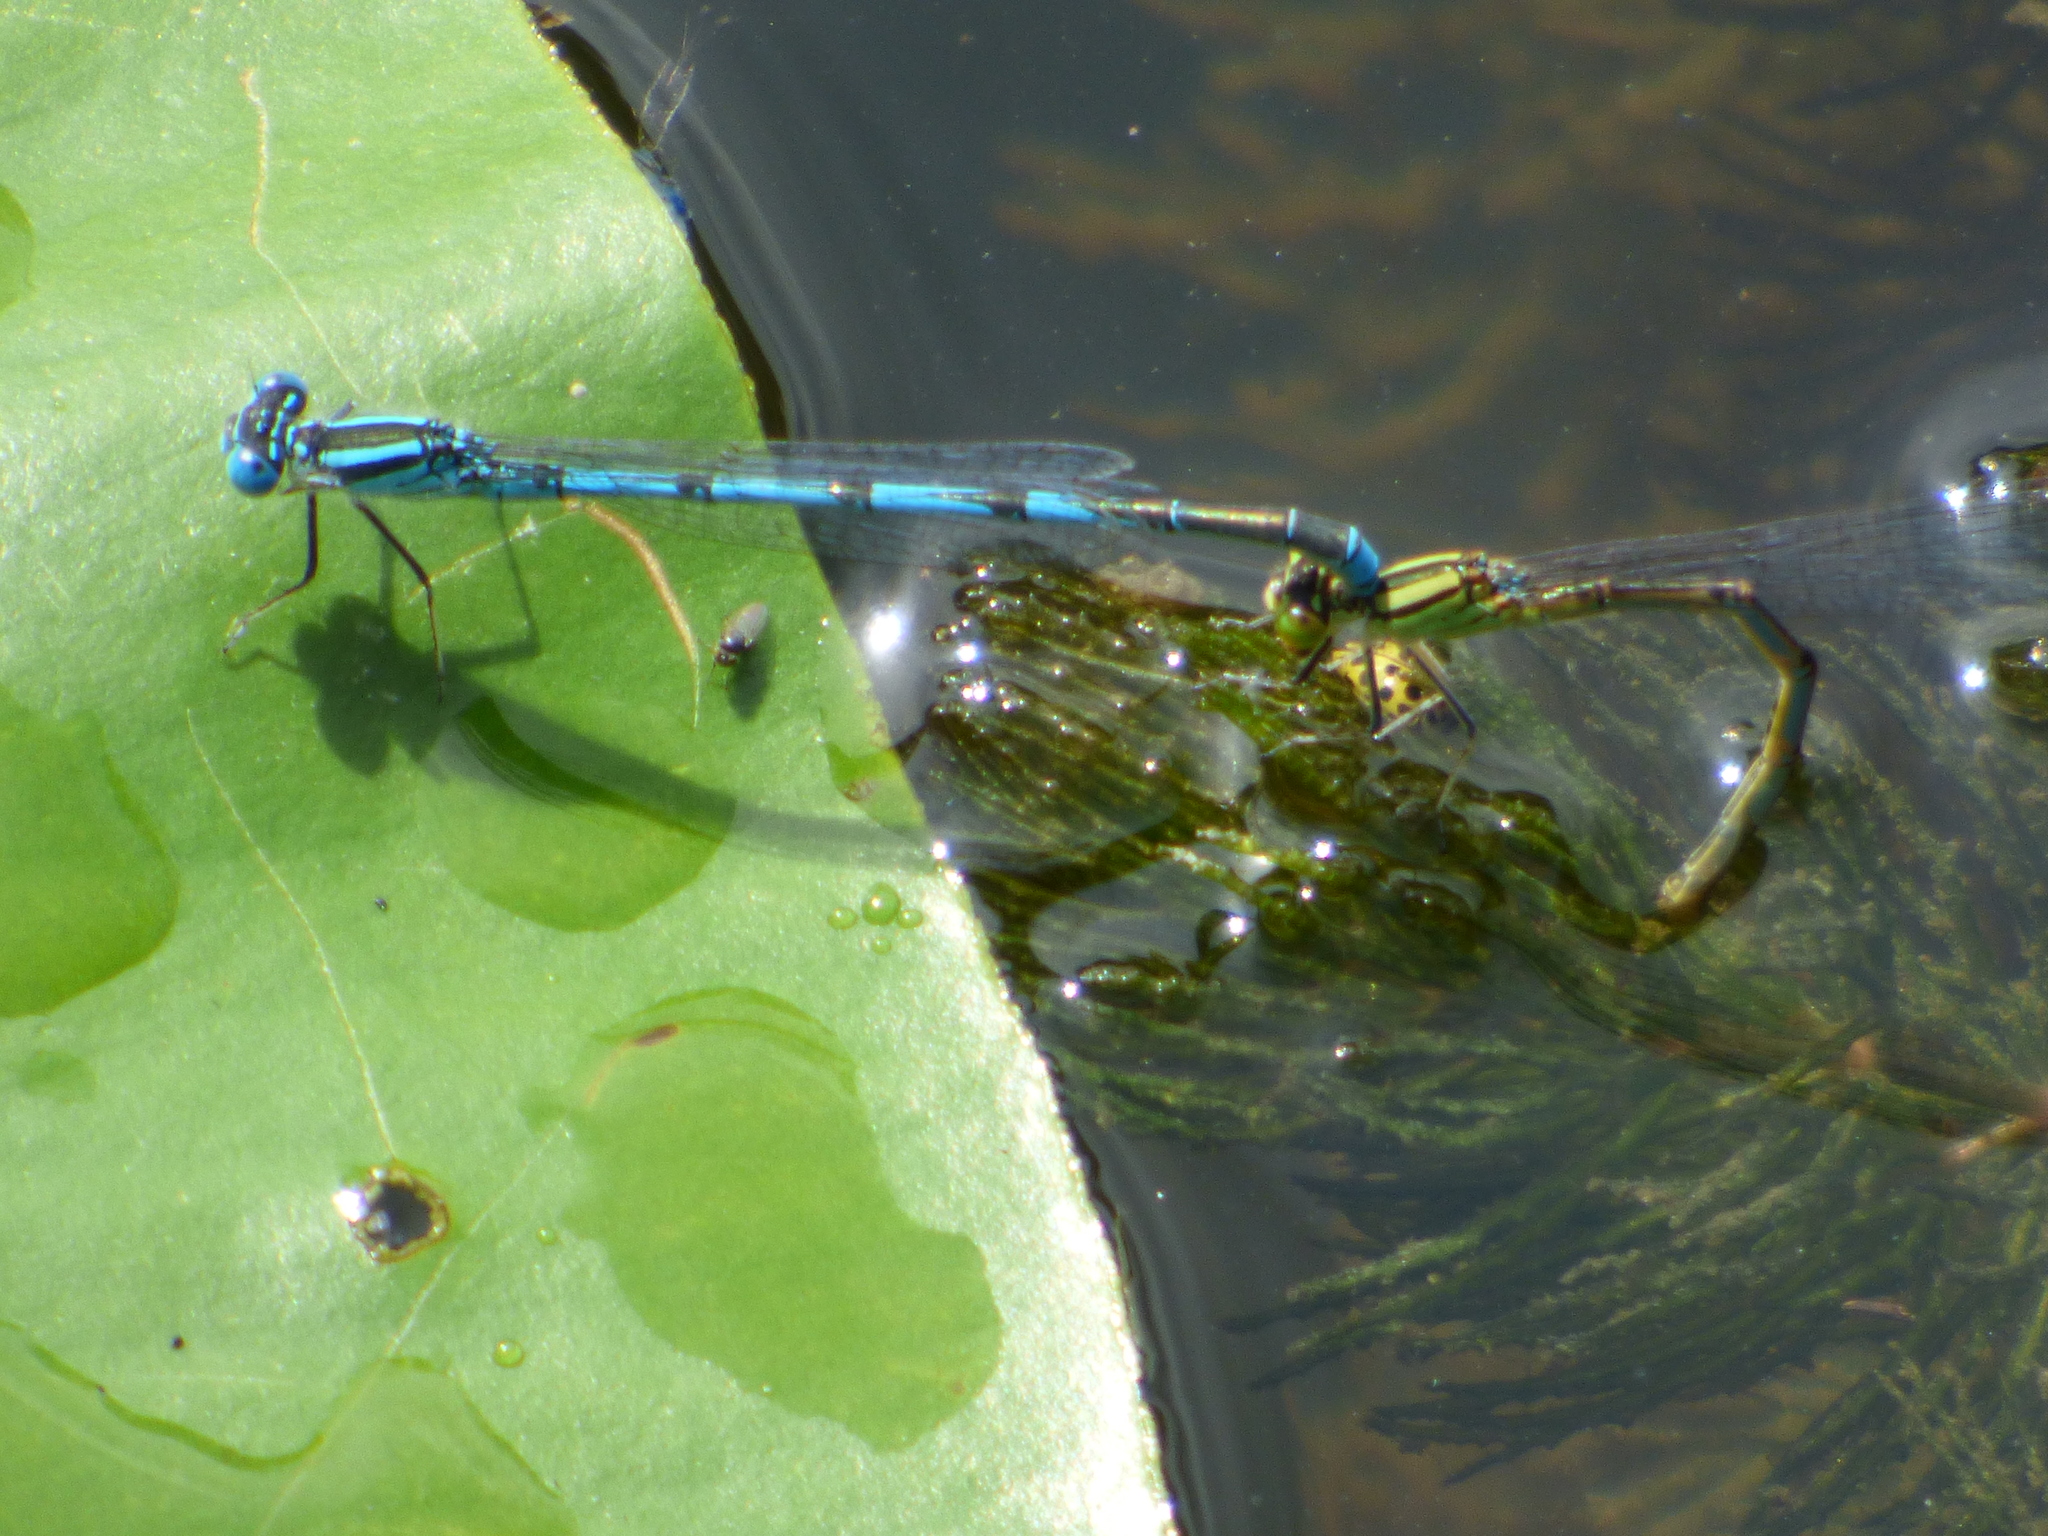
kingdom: Animalia
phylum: Arthropoda
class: Insecta
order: Odonata
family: Coenagrionidae
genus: Erythromma
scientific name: Erythromma lindenii
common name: Blue-eye
